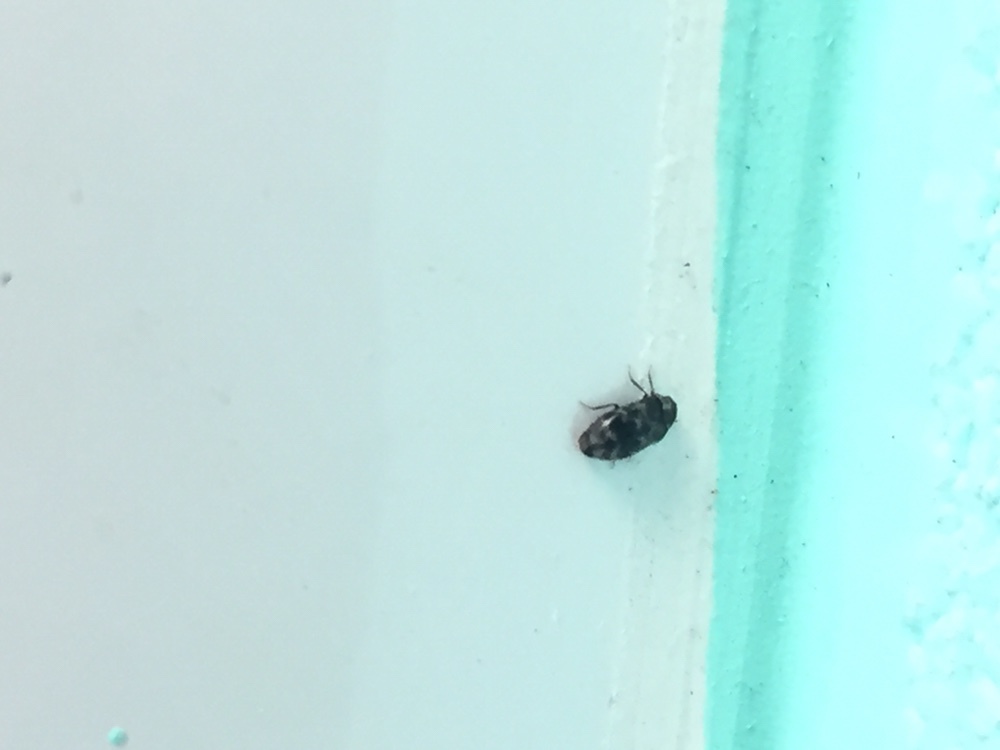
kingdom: Animalia
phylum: Arthropoda
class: Insecta
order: Coleoptera
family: Dermestidae
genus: Trogoderma
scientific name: Trogoderma sternale
